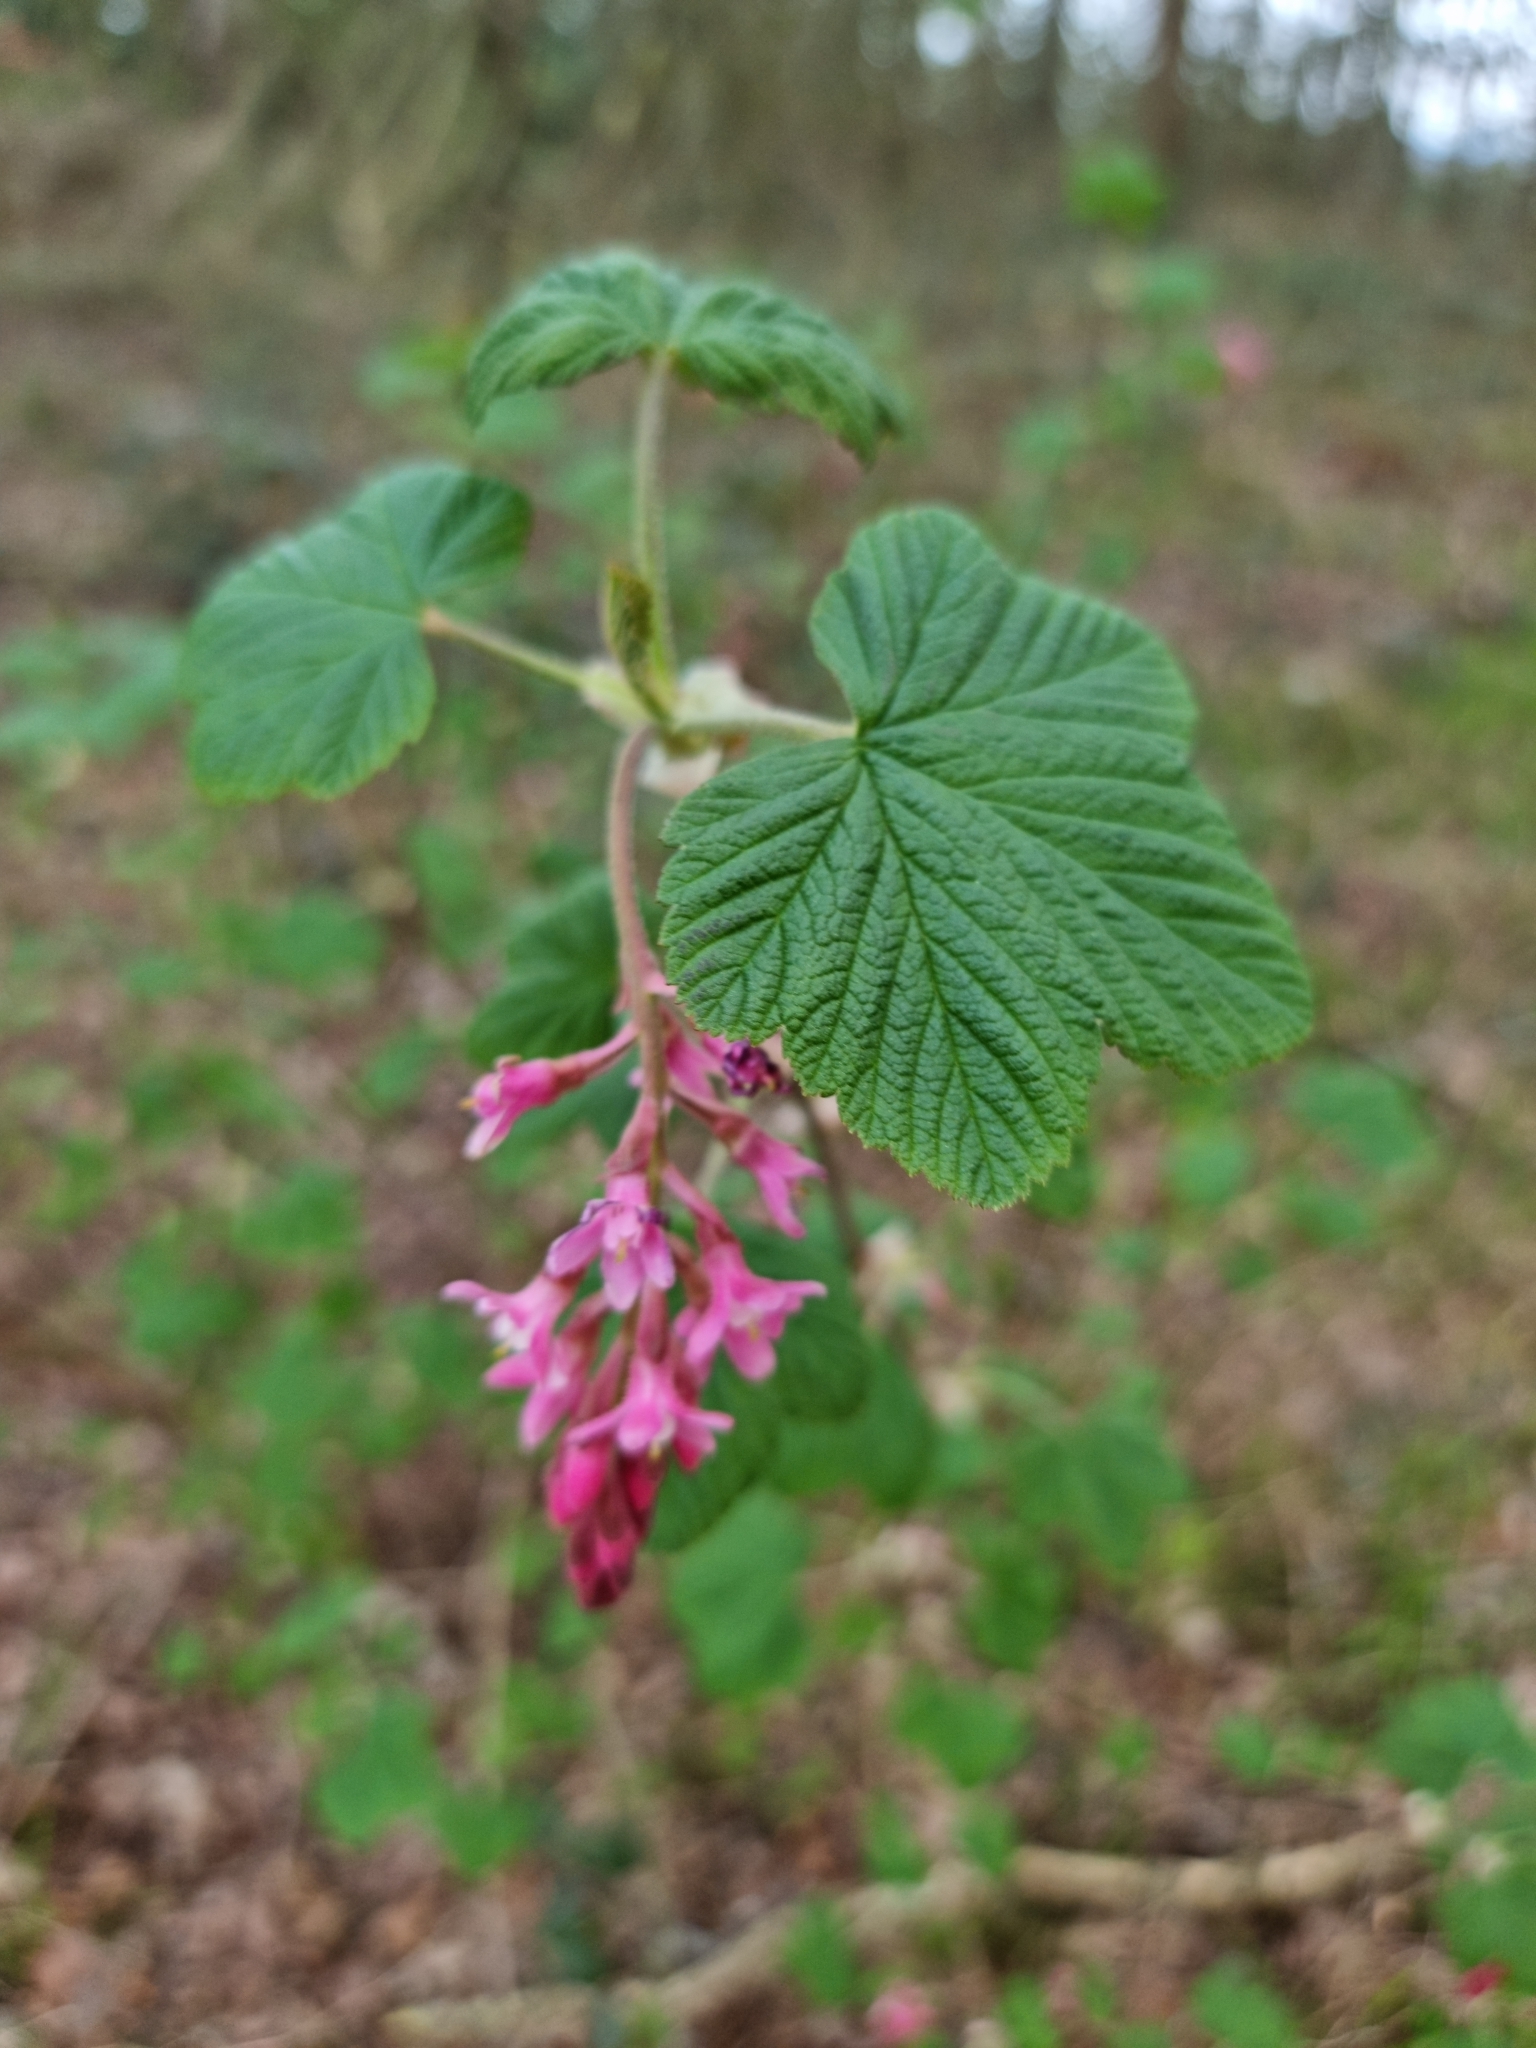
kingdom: Plantae
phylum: Tracheophyta
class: Magnoliopsida
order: Saxifragales
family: Grossulariaceae
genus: Ribes
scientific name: Ribes sanguineum
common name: Flowering currant
